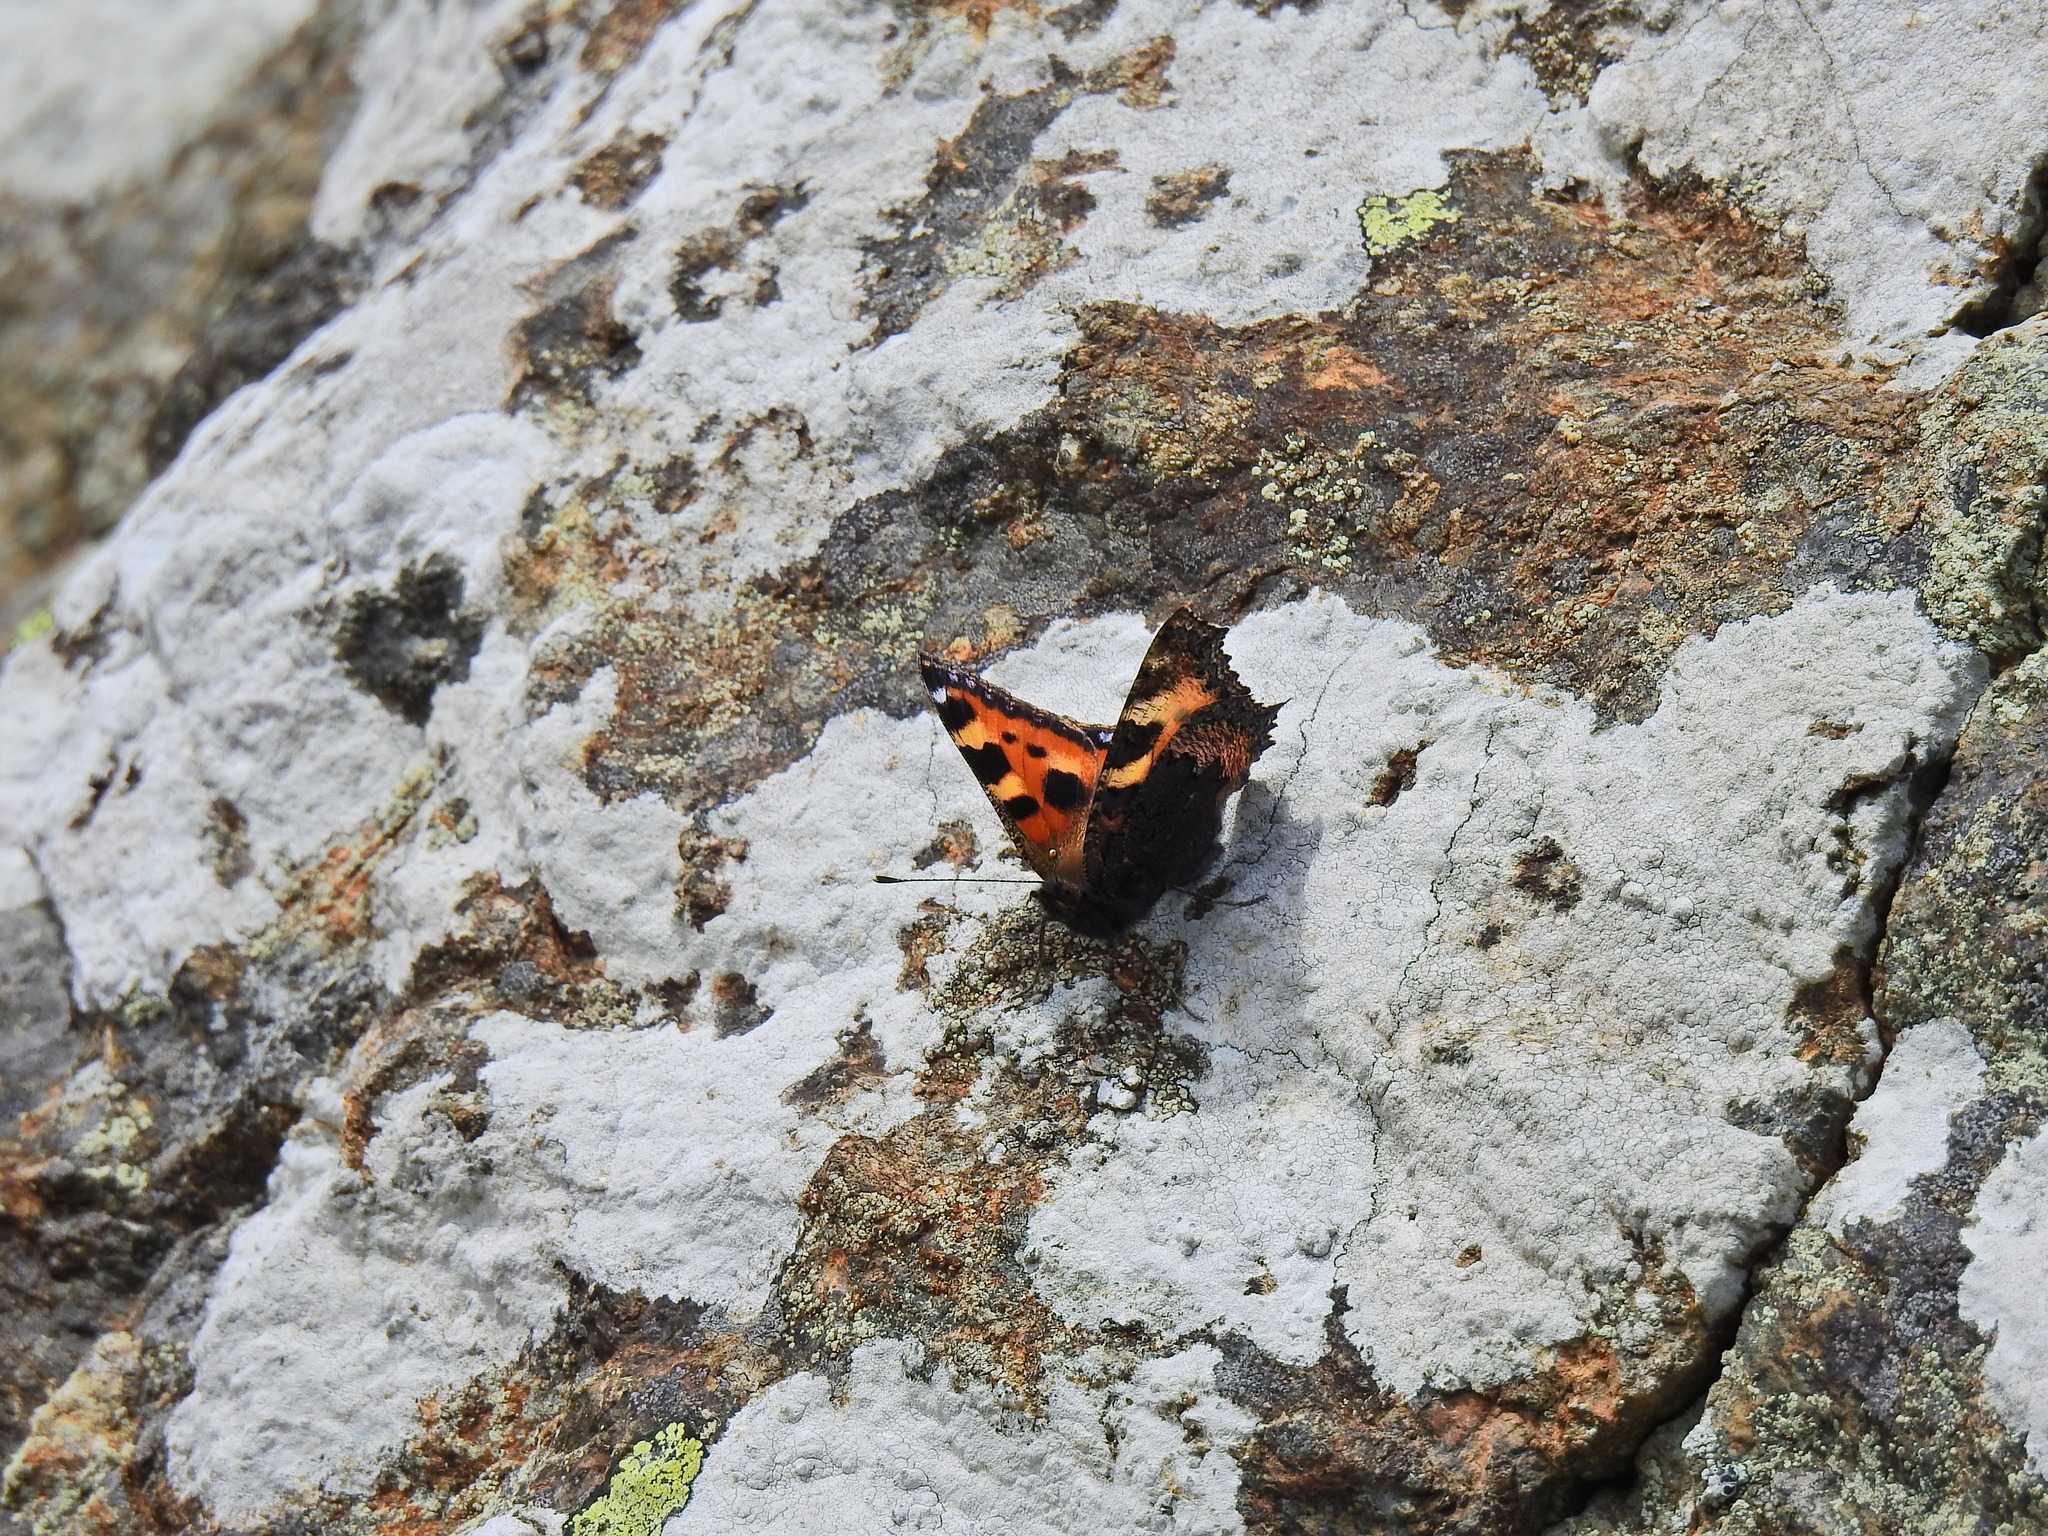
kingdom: Animalia
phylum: Arthropoda
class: Insecta
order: Lepidoptera
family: Nymphalidae
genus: Aglais
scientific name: Aglais urticae
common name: Small tortoiseshell
